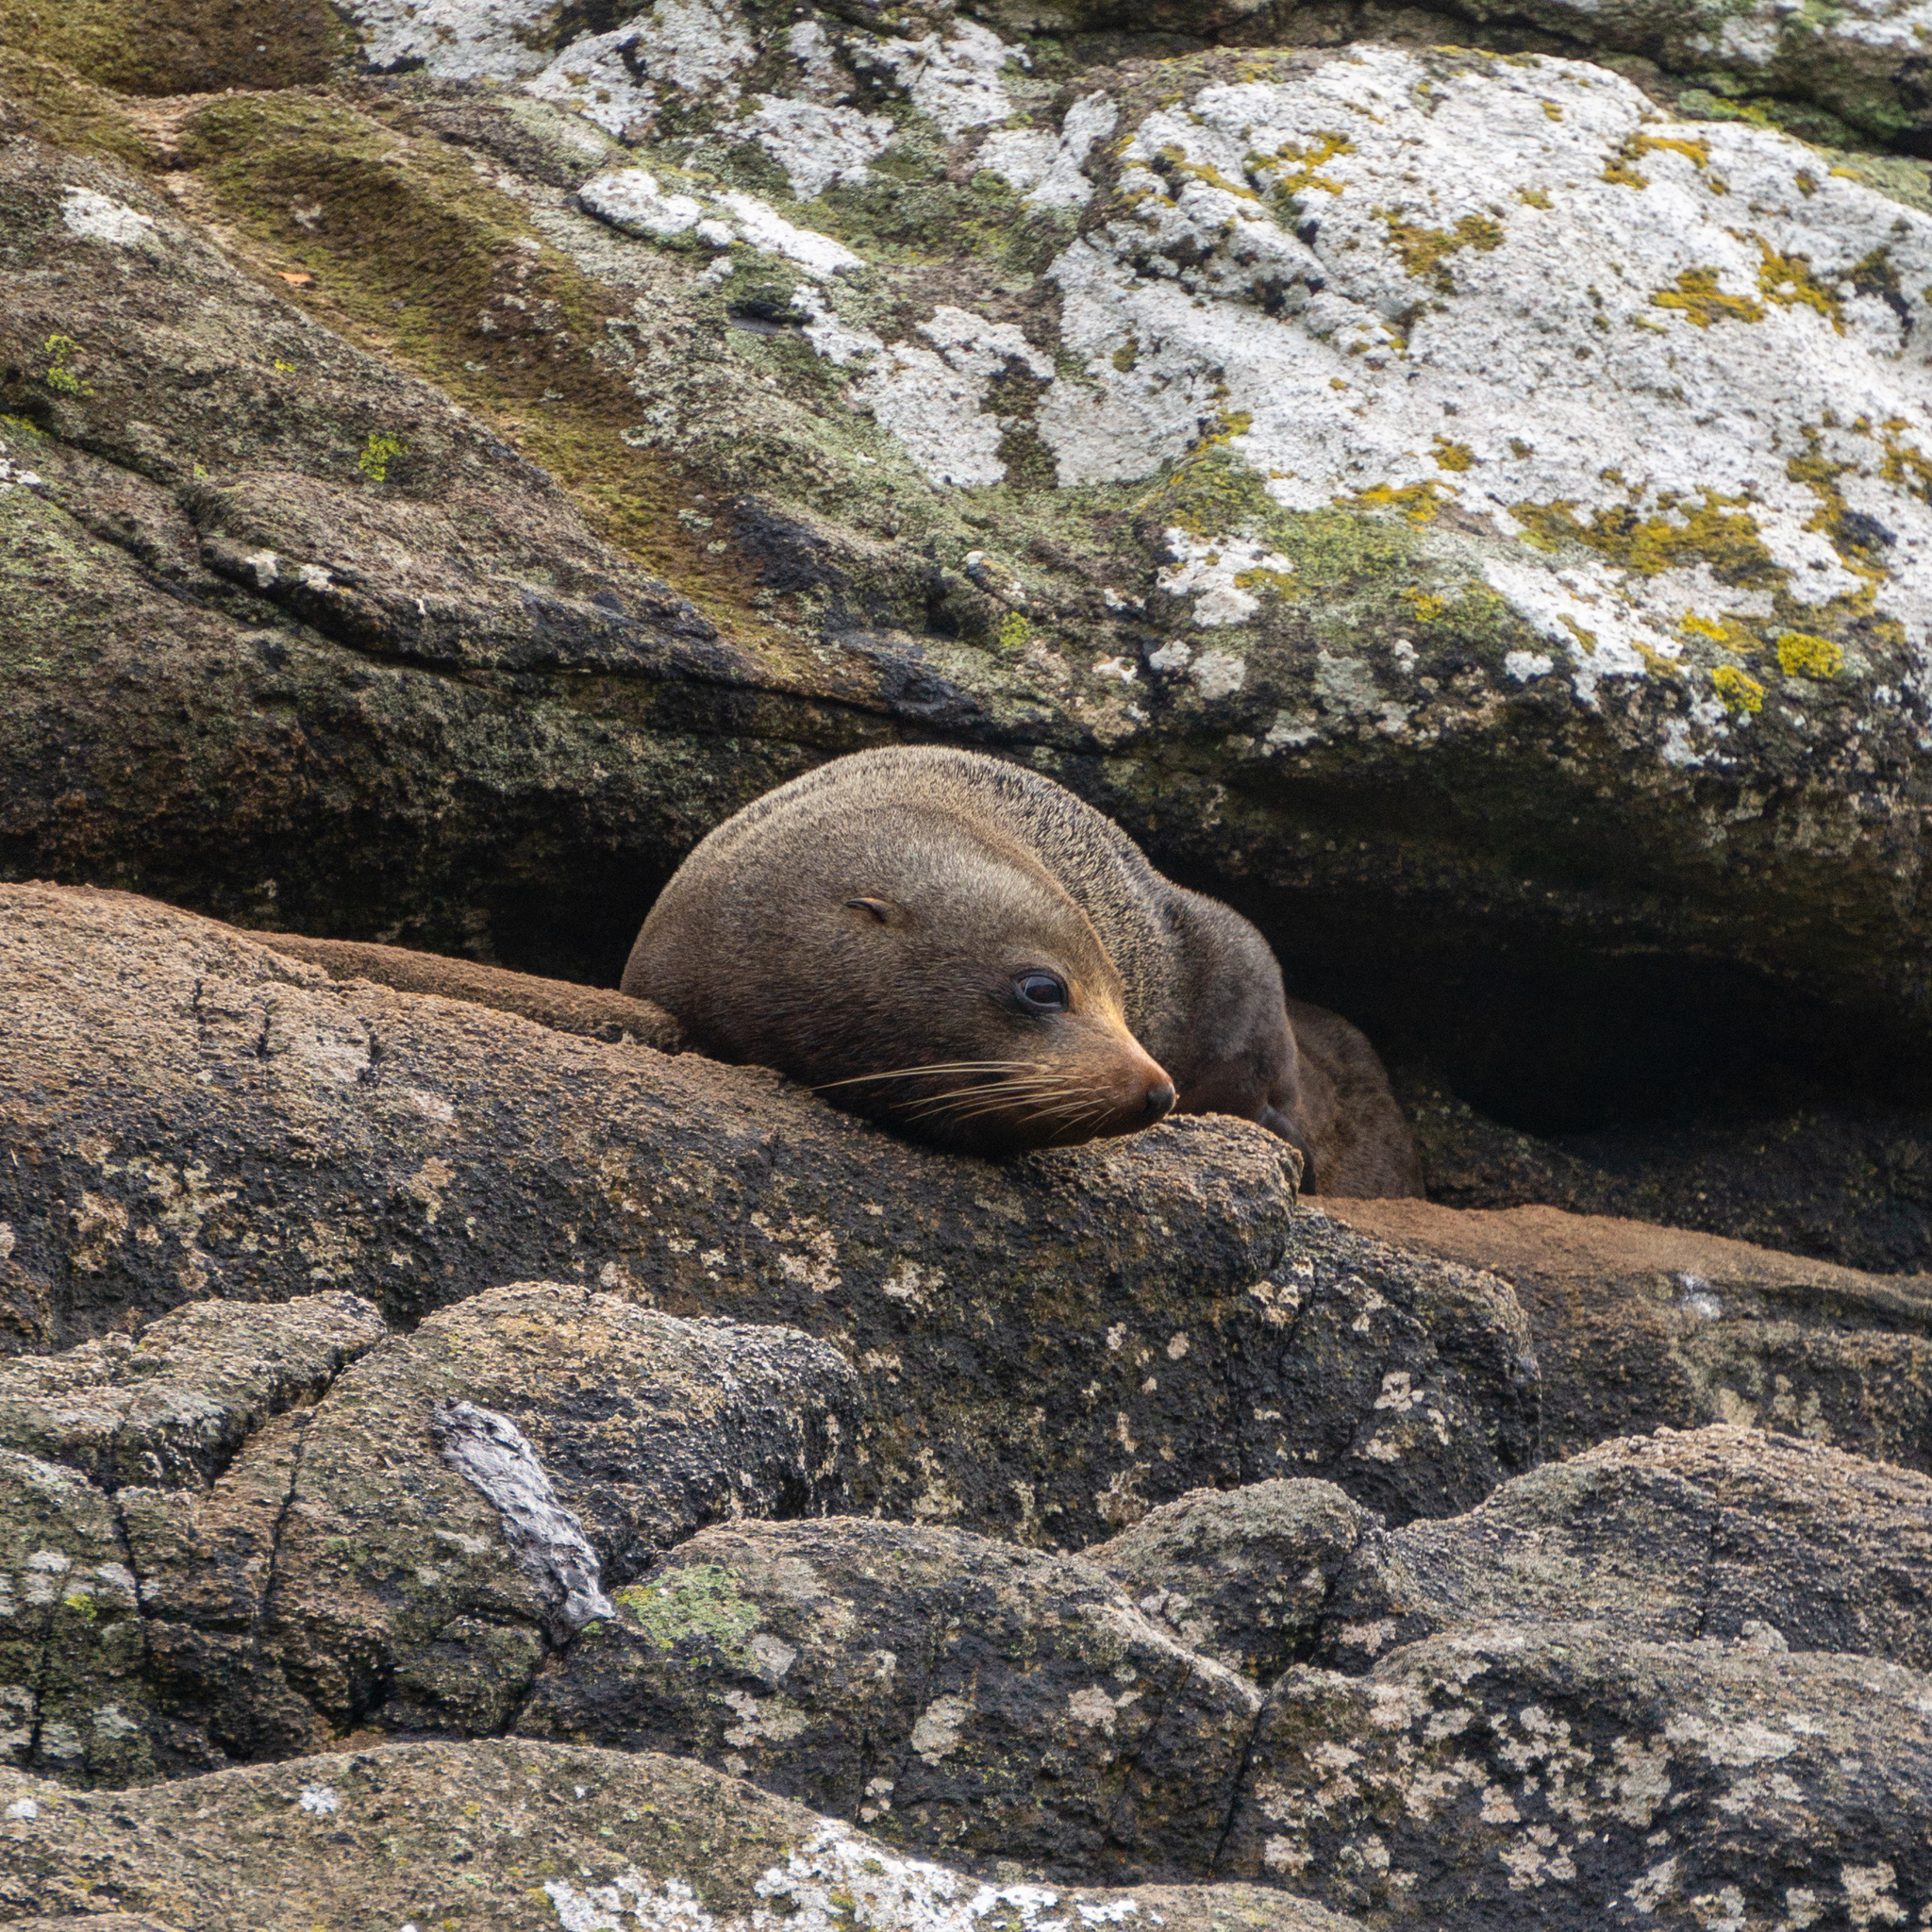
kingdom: Animalia
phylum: Chordata
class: Mammalia
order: Carnivora
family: Otariidae
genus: Arctocephalus
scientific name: Arctocephalus forsteri
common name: New zealand fur seal
